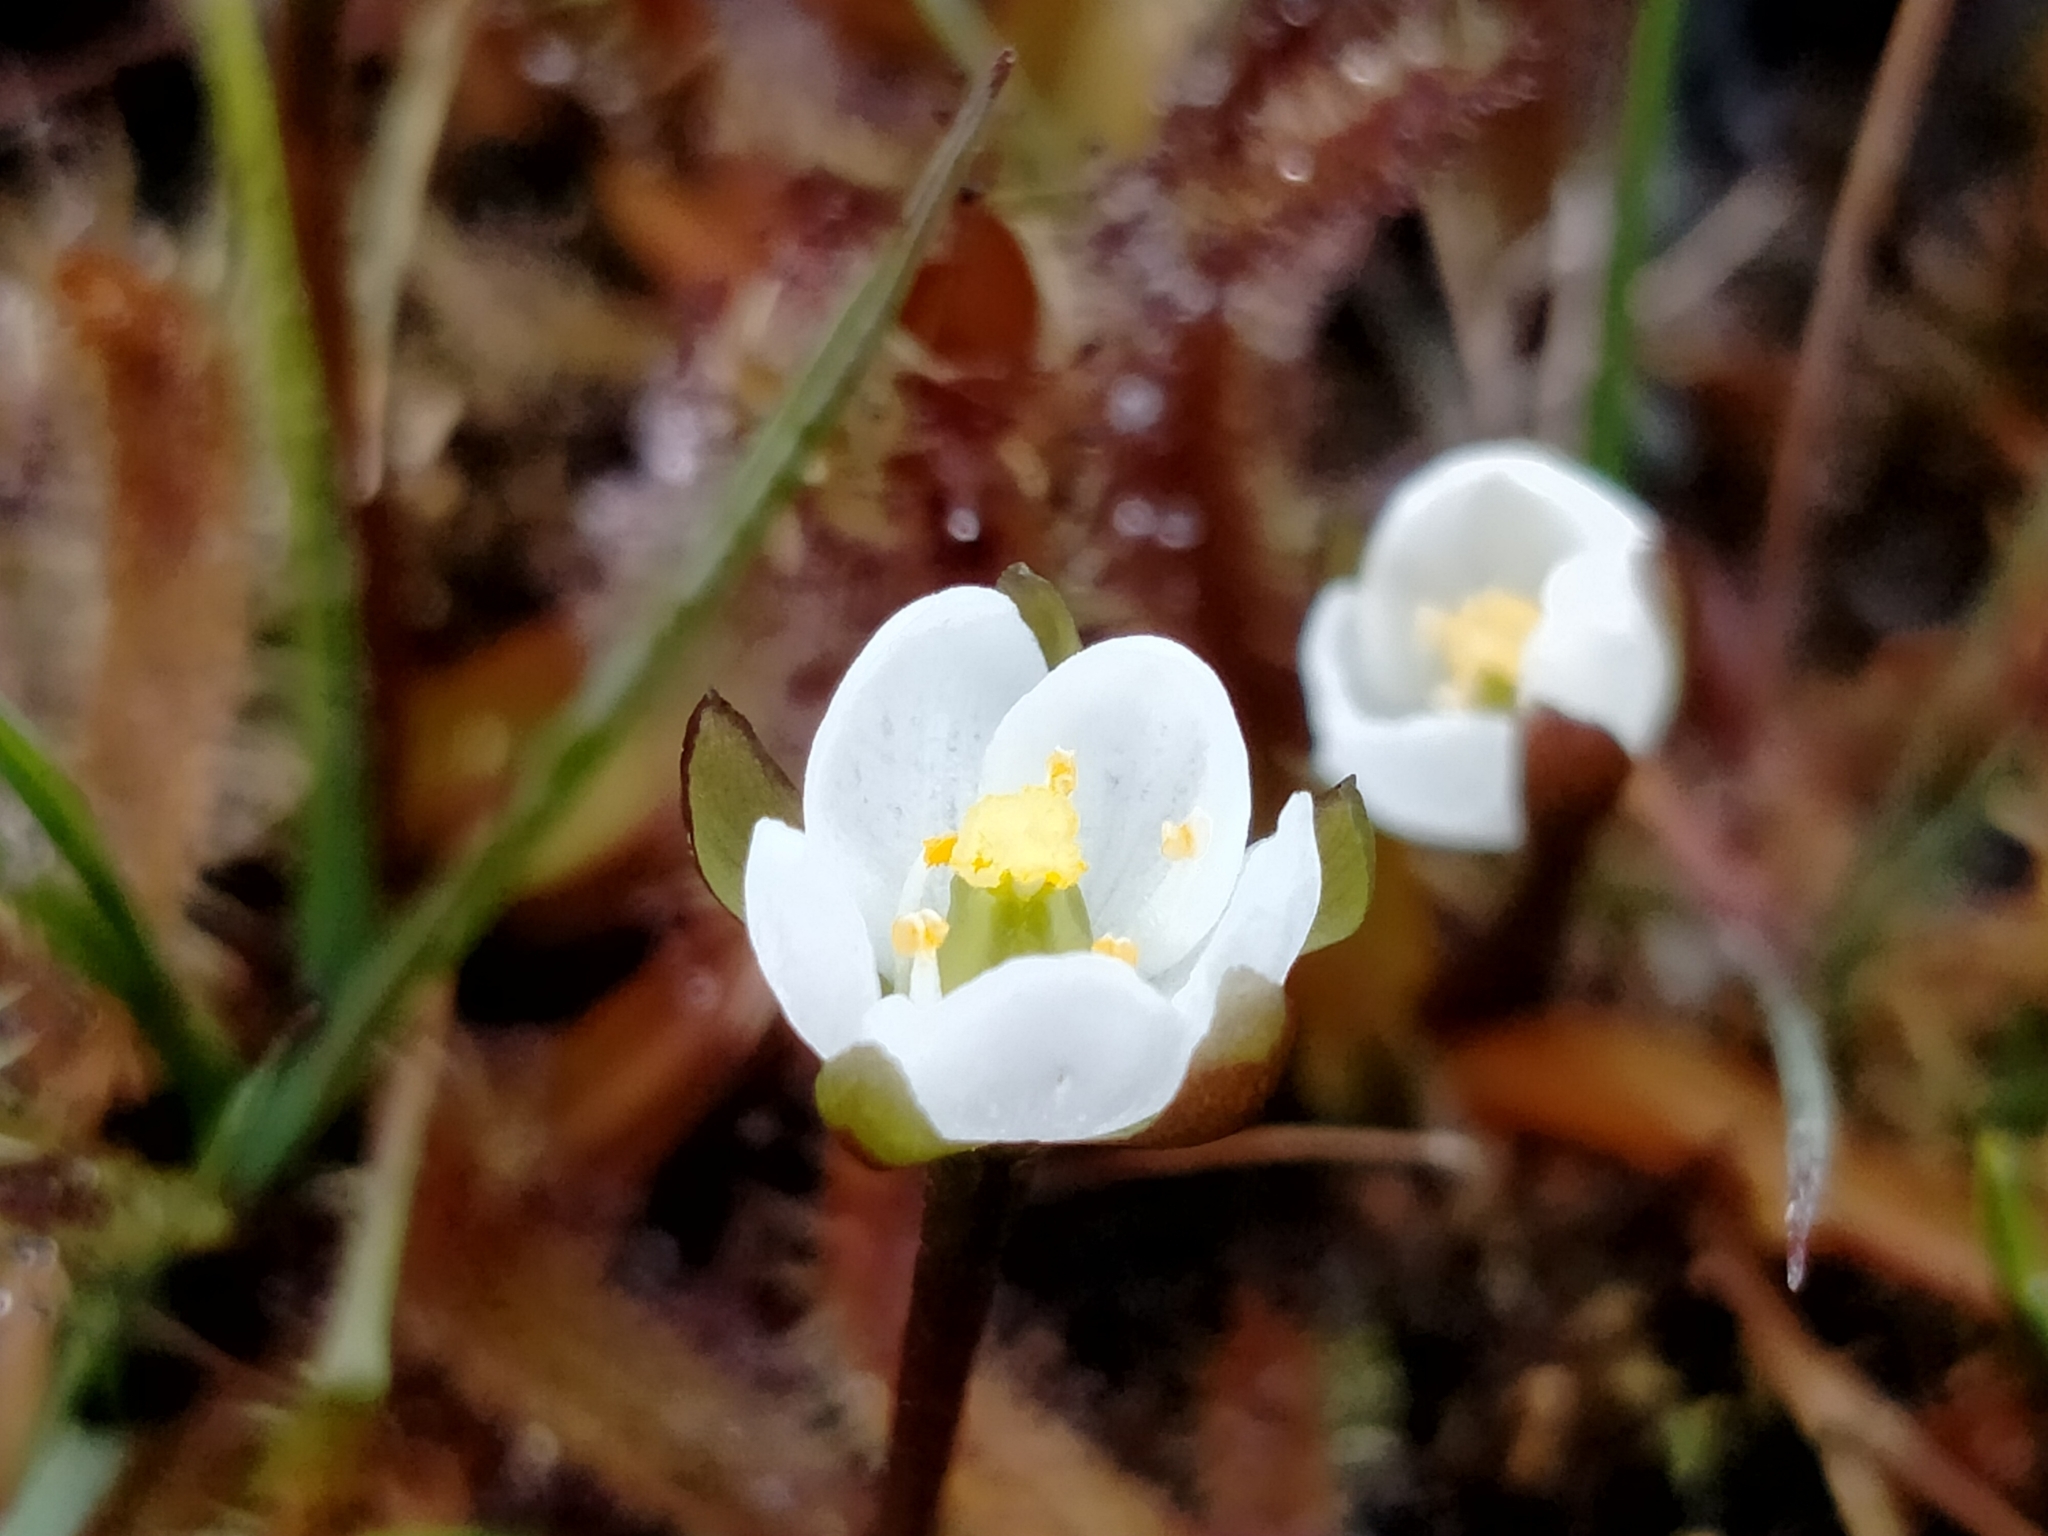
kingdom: Plantae
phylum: Tracheophyta
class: Magnoliopsida
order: Caryophyllales
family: Droseraceae
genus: Drosera
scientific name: Drosera arcturi
